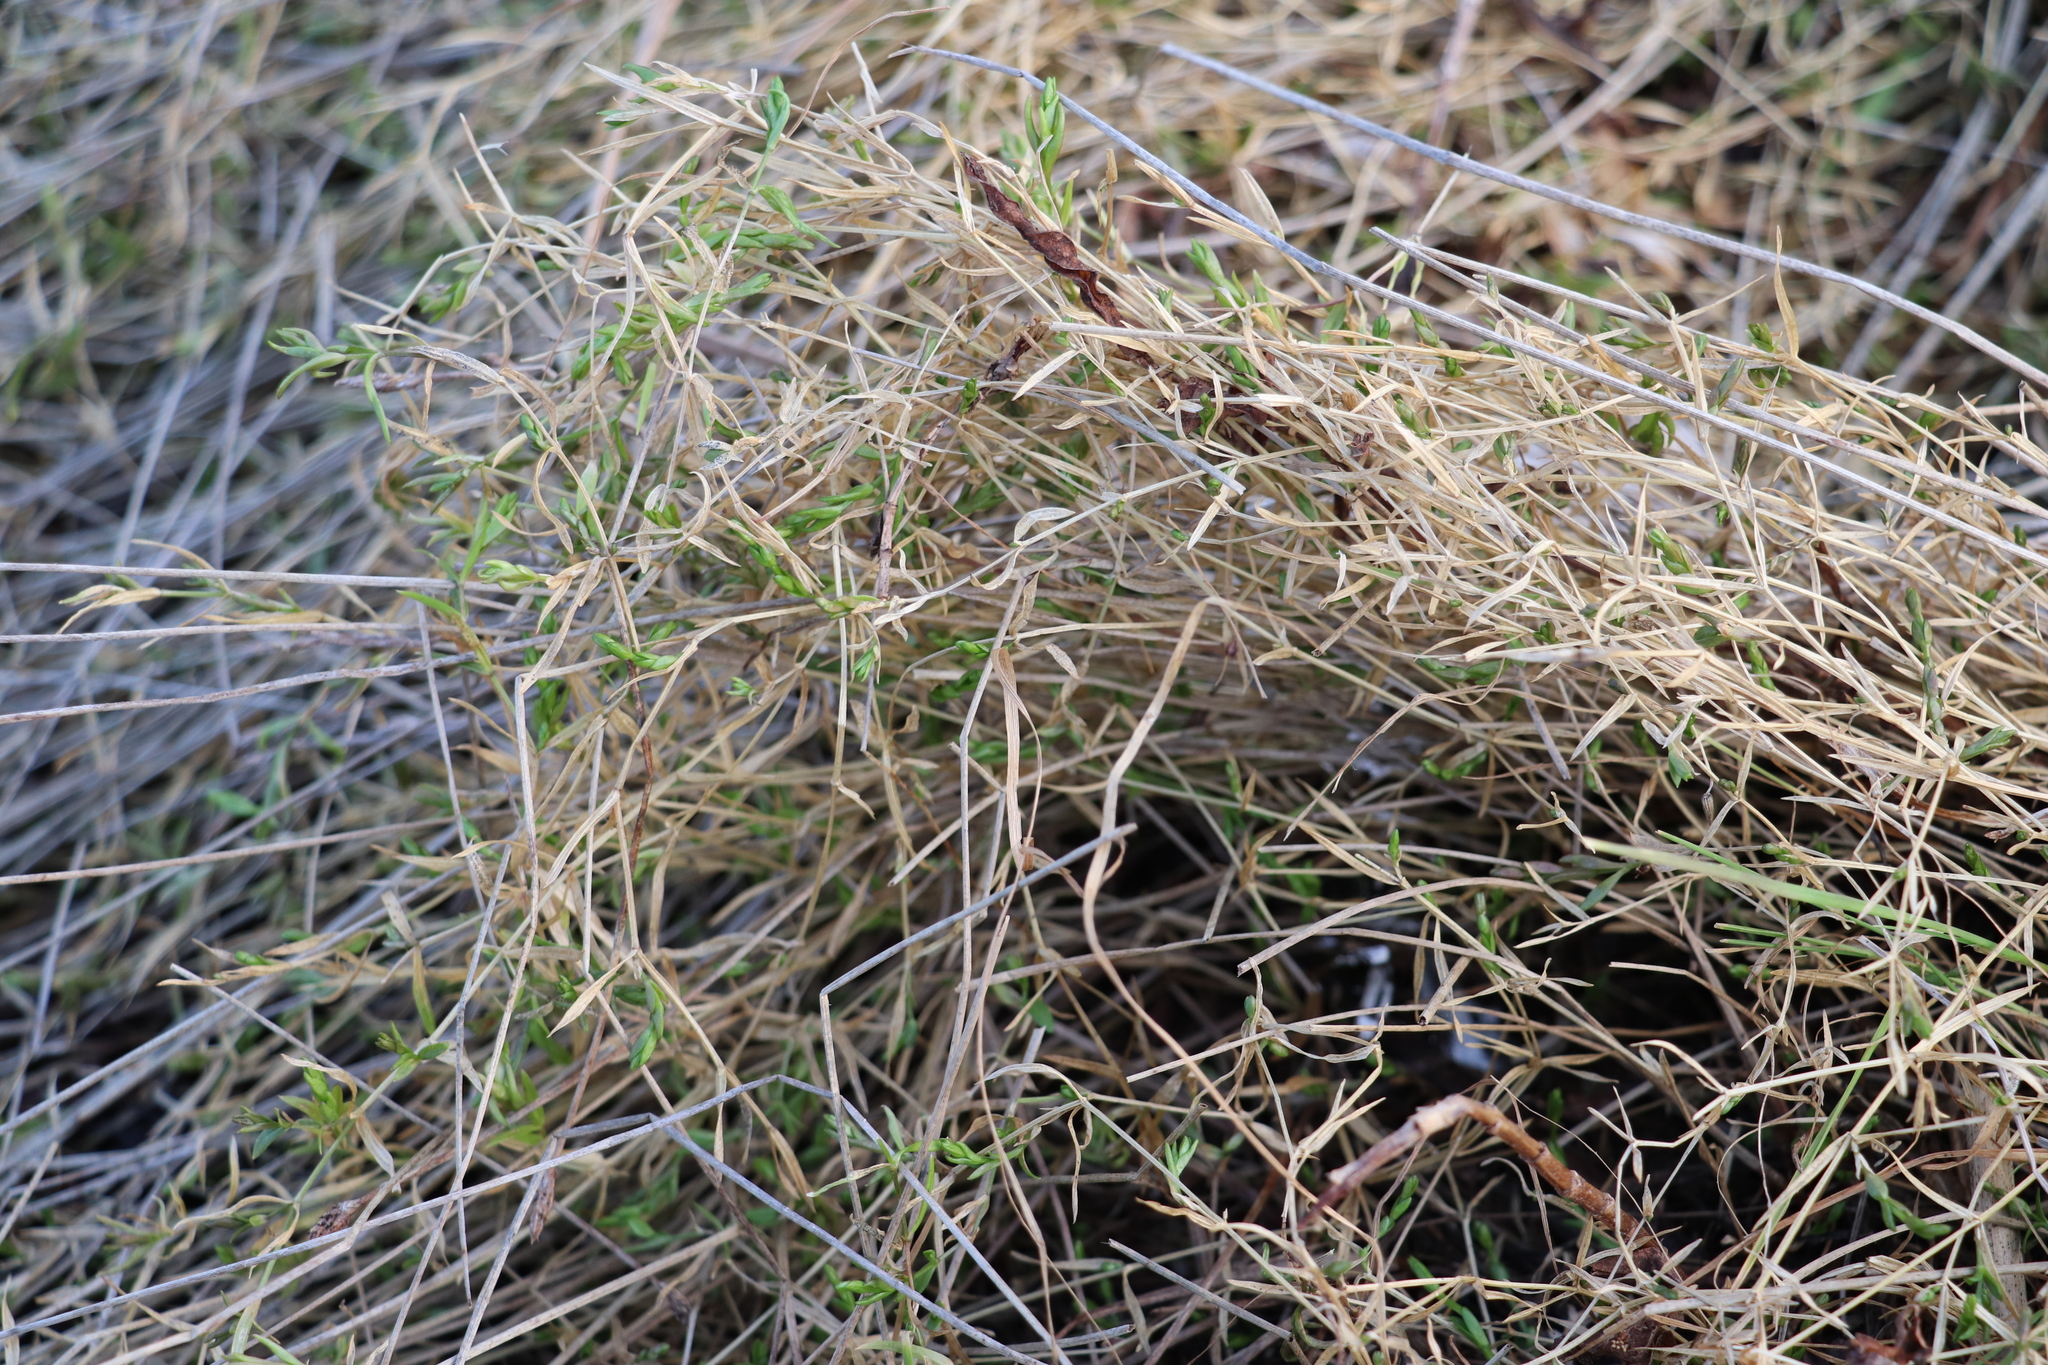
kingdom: Plantae
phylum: Tracheophyta
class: Magnoliopsida
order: Caryophyllales
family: Caryophyllaceae
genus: Stellaria
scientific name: Stellaria graminea
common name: Grass-like starwort
